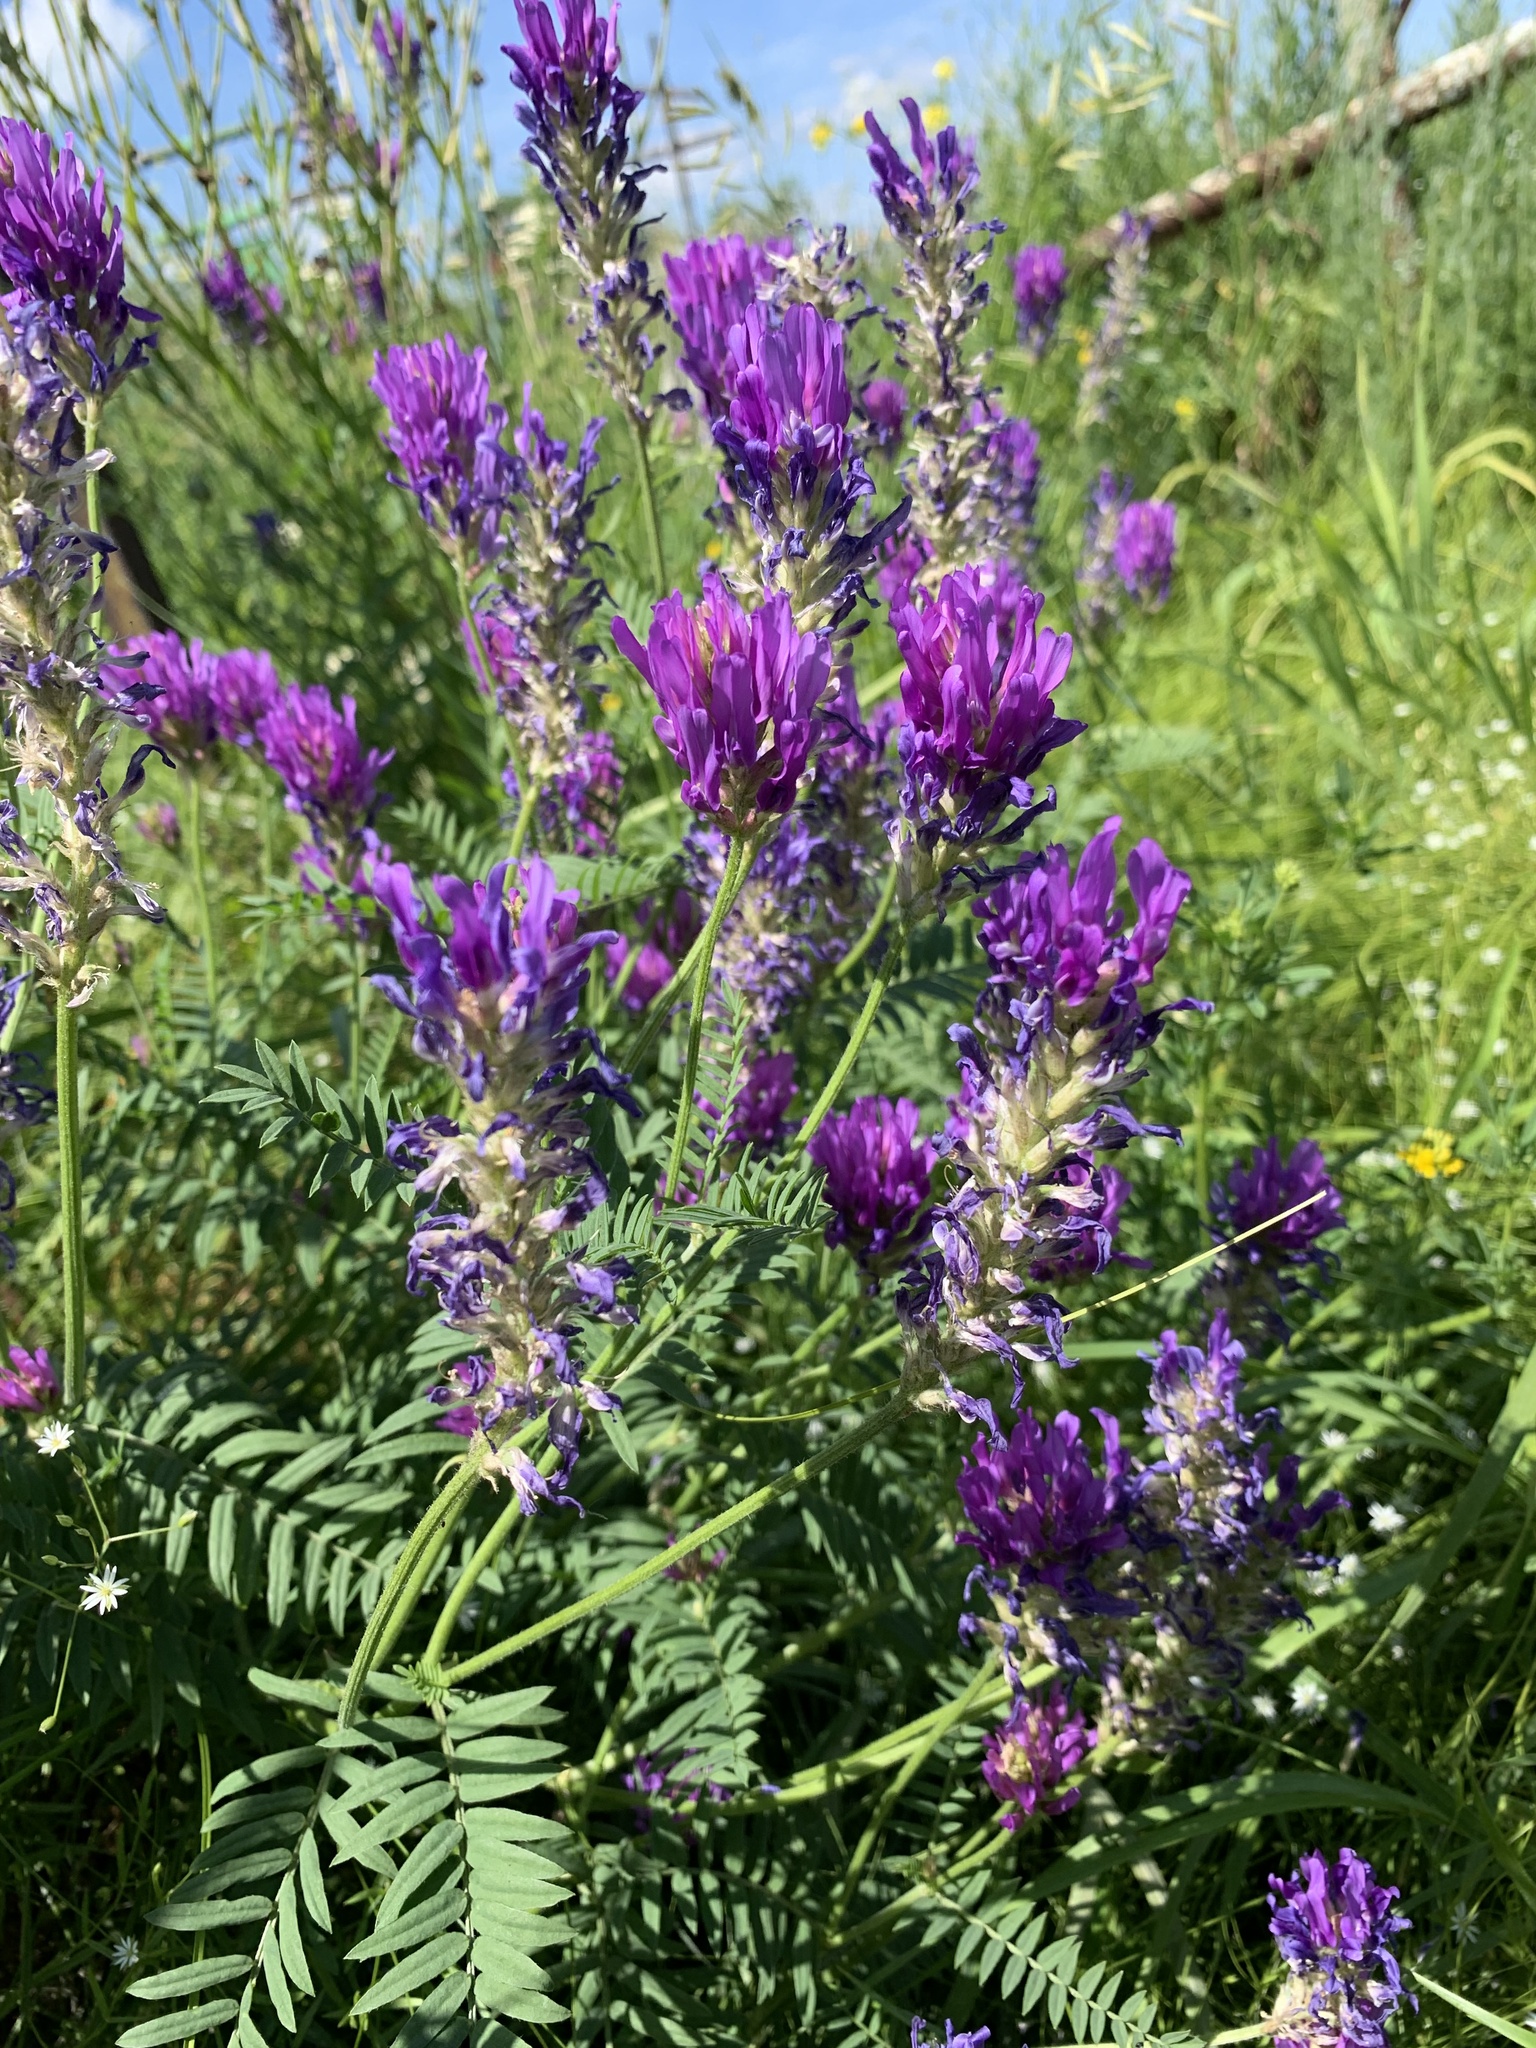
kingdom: Plantae
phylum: Tracheophyta
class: Magnoliopsida
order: Fabales
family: Fabaceae
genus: Astragalus
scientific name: Astragalus onobrychis
